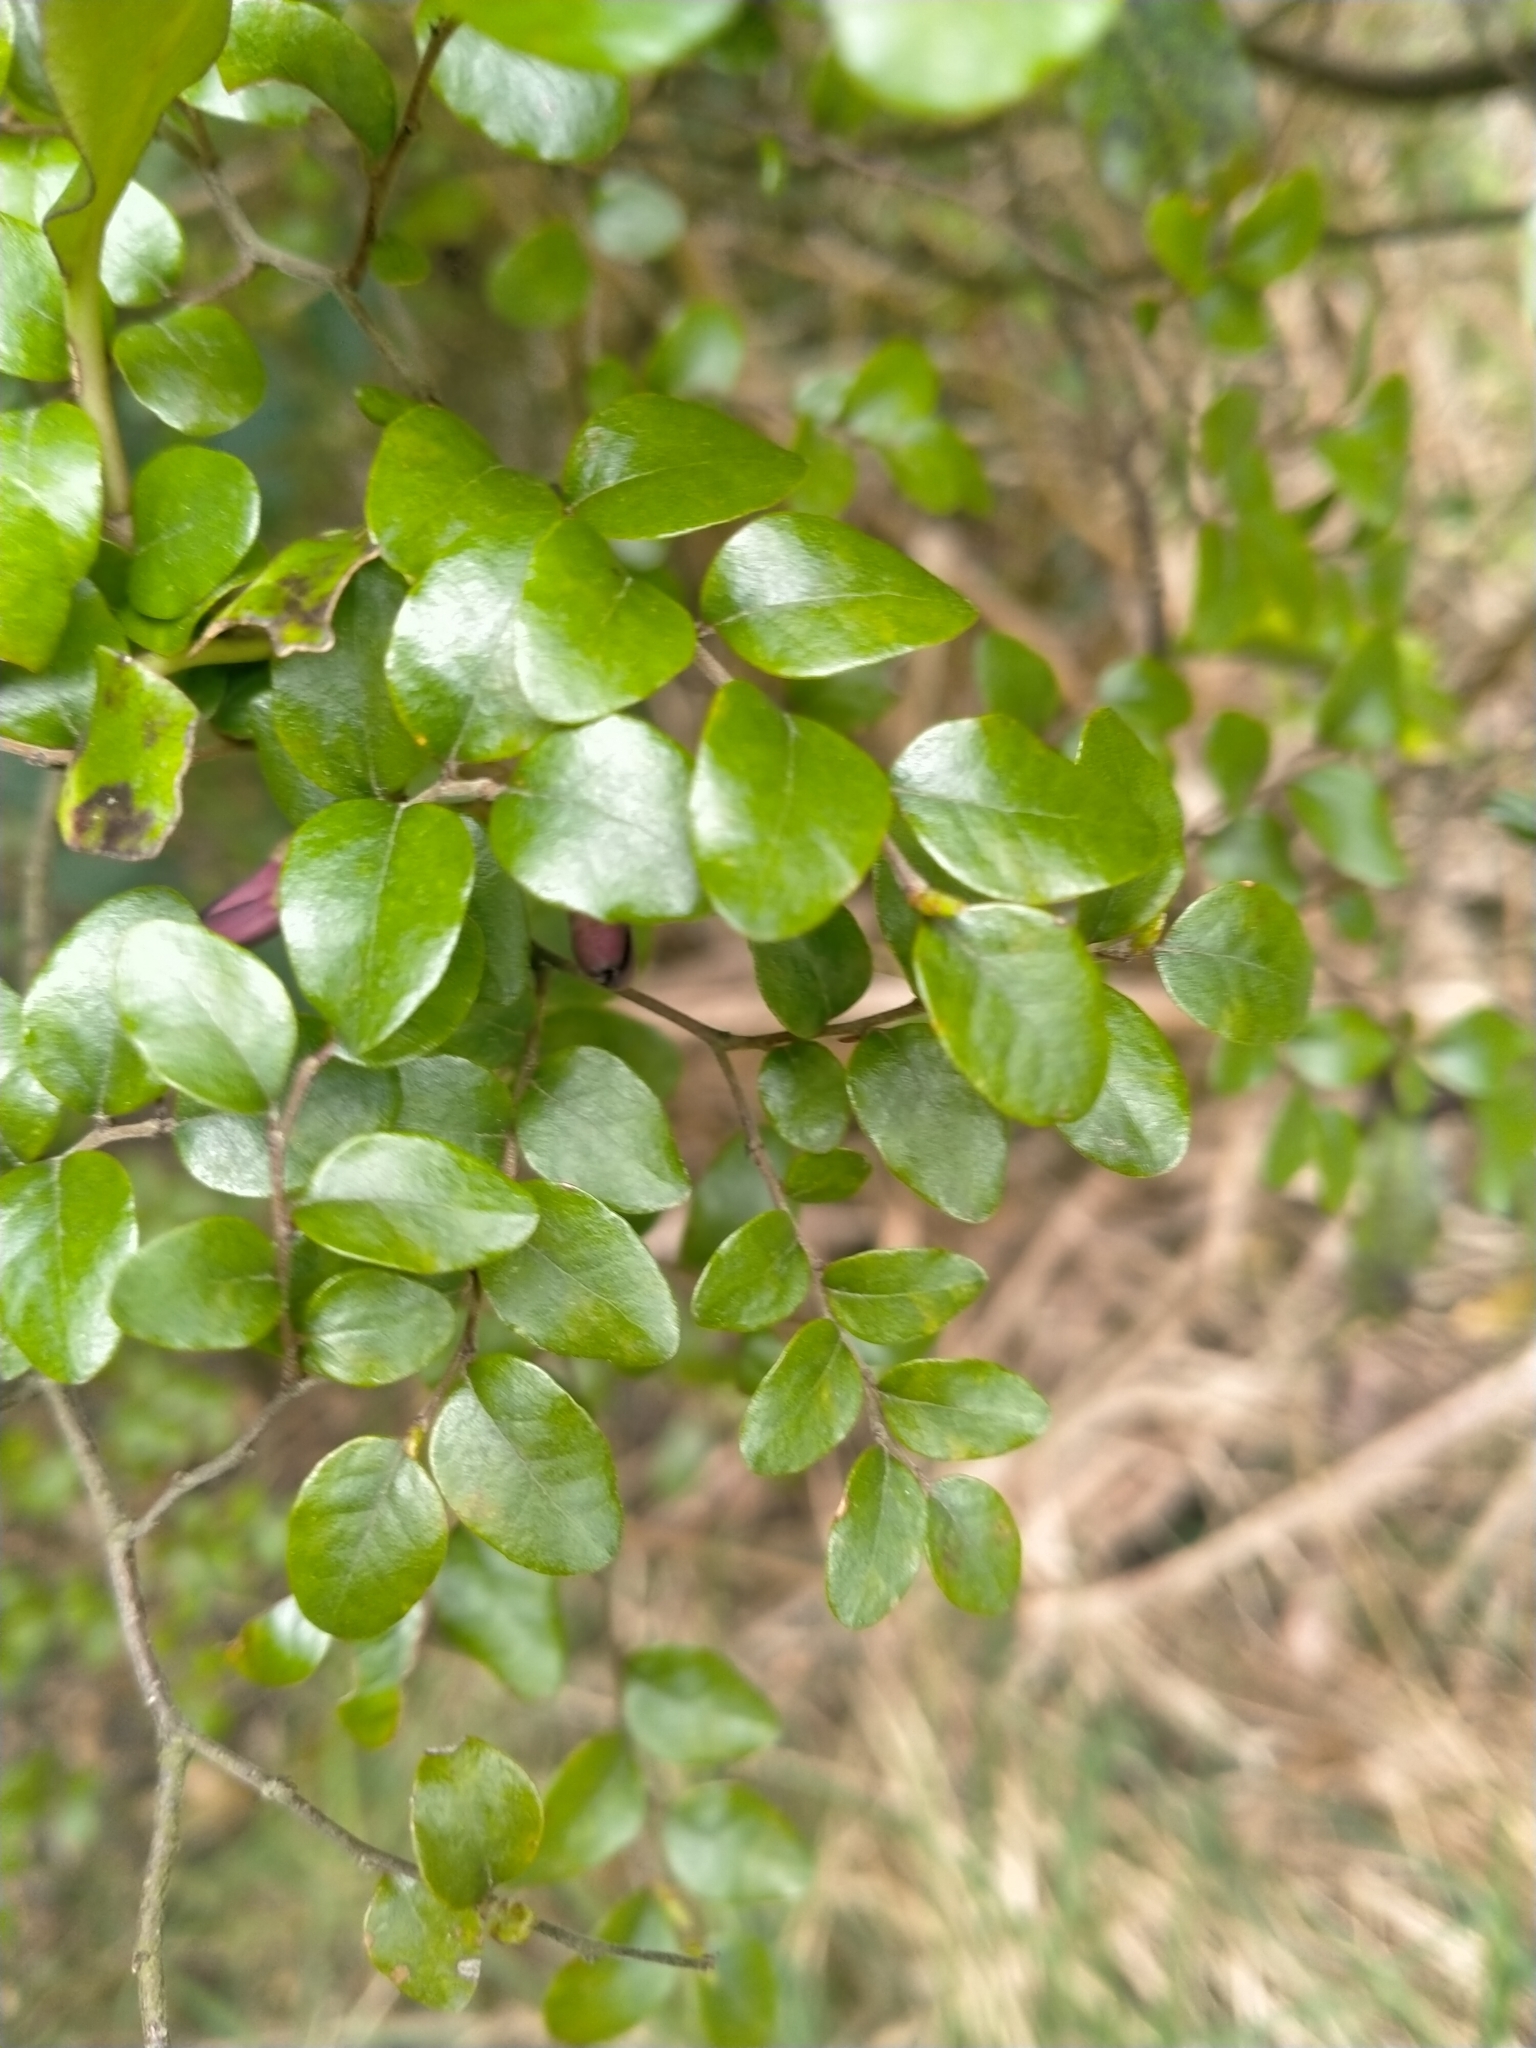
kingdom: Plantae
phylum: Tracheophyta
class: Magnoliopsida
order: Fagales
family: Nothofagaceae
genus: Nothofagus
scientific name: Nothofagus solandri
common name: Black beech
